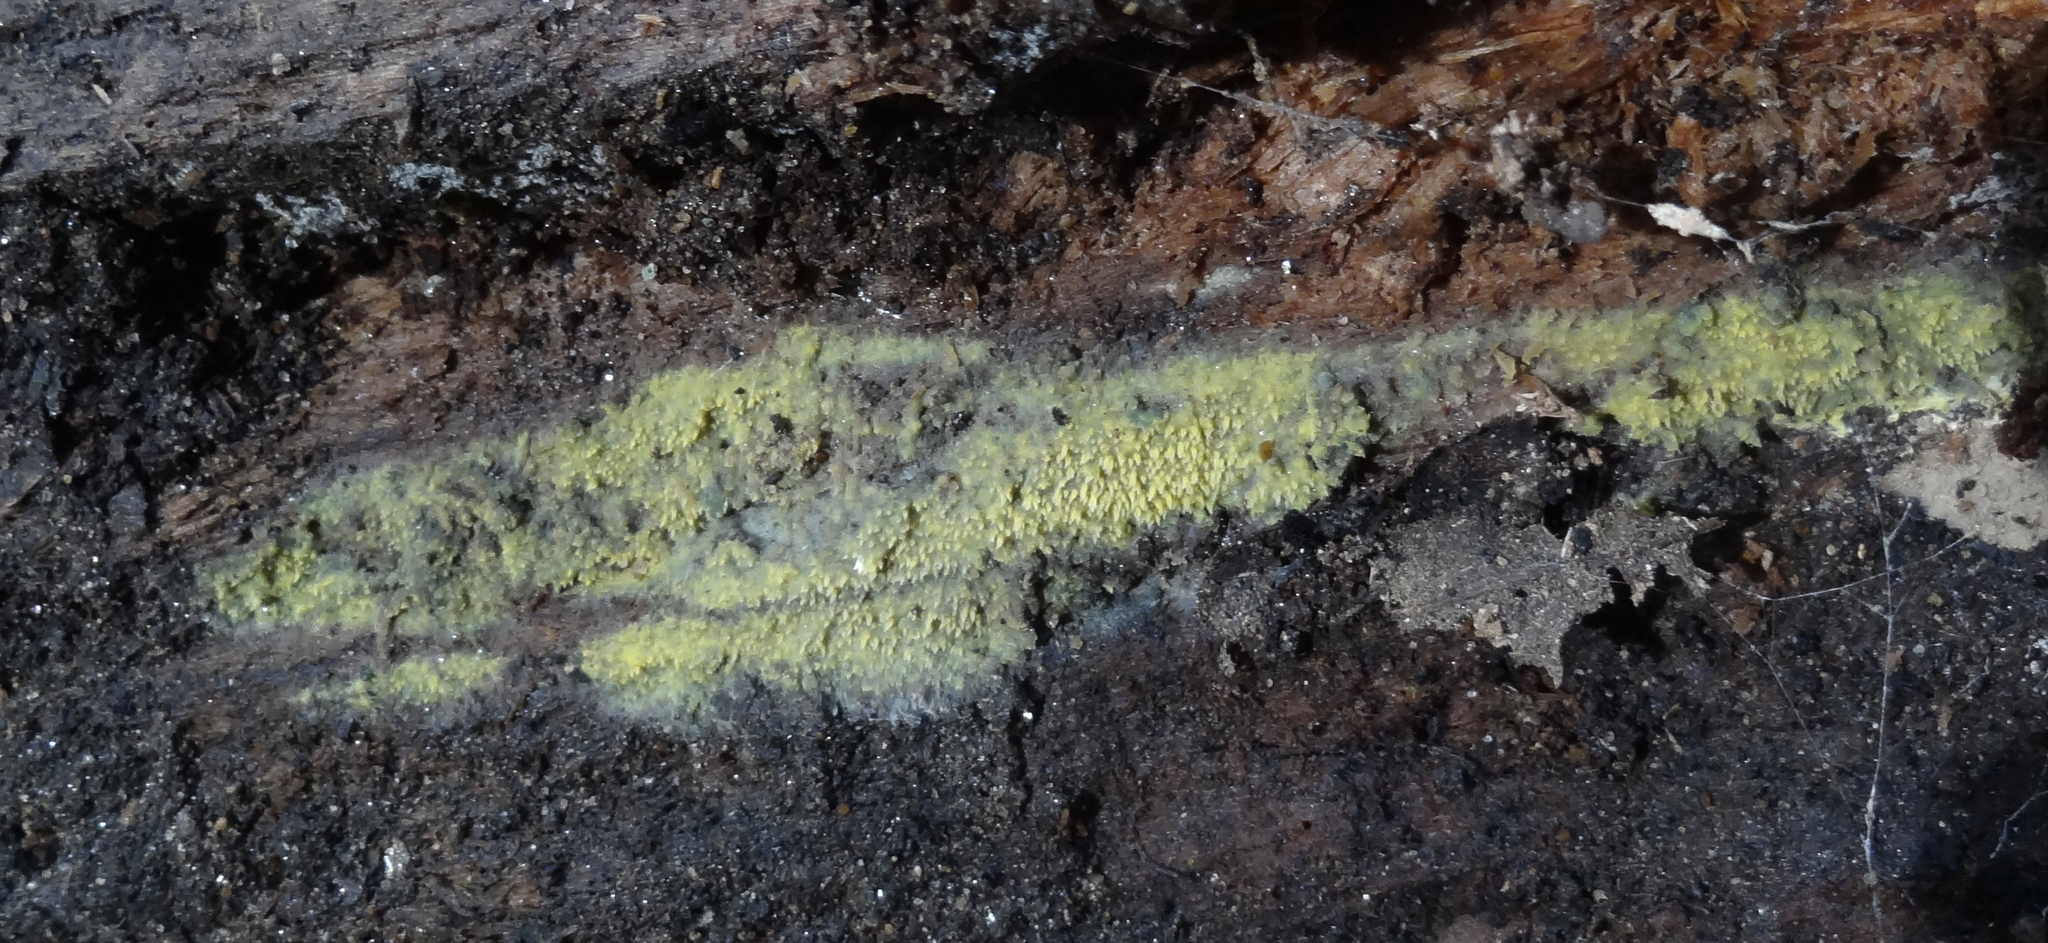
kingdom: Fungi
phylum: Basidiomycota
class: Agaricomycetes
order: Polyporales
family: Meruliaceae
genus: Mycoacia
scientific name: Mycoacia uda
